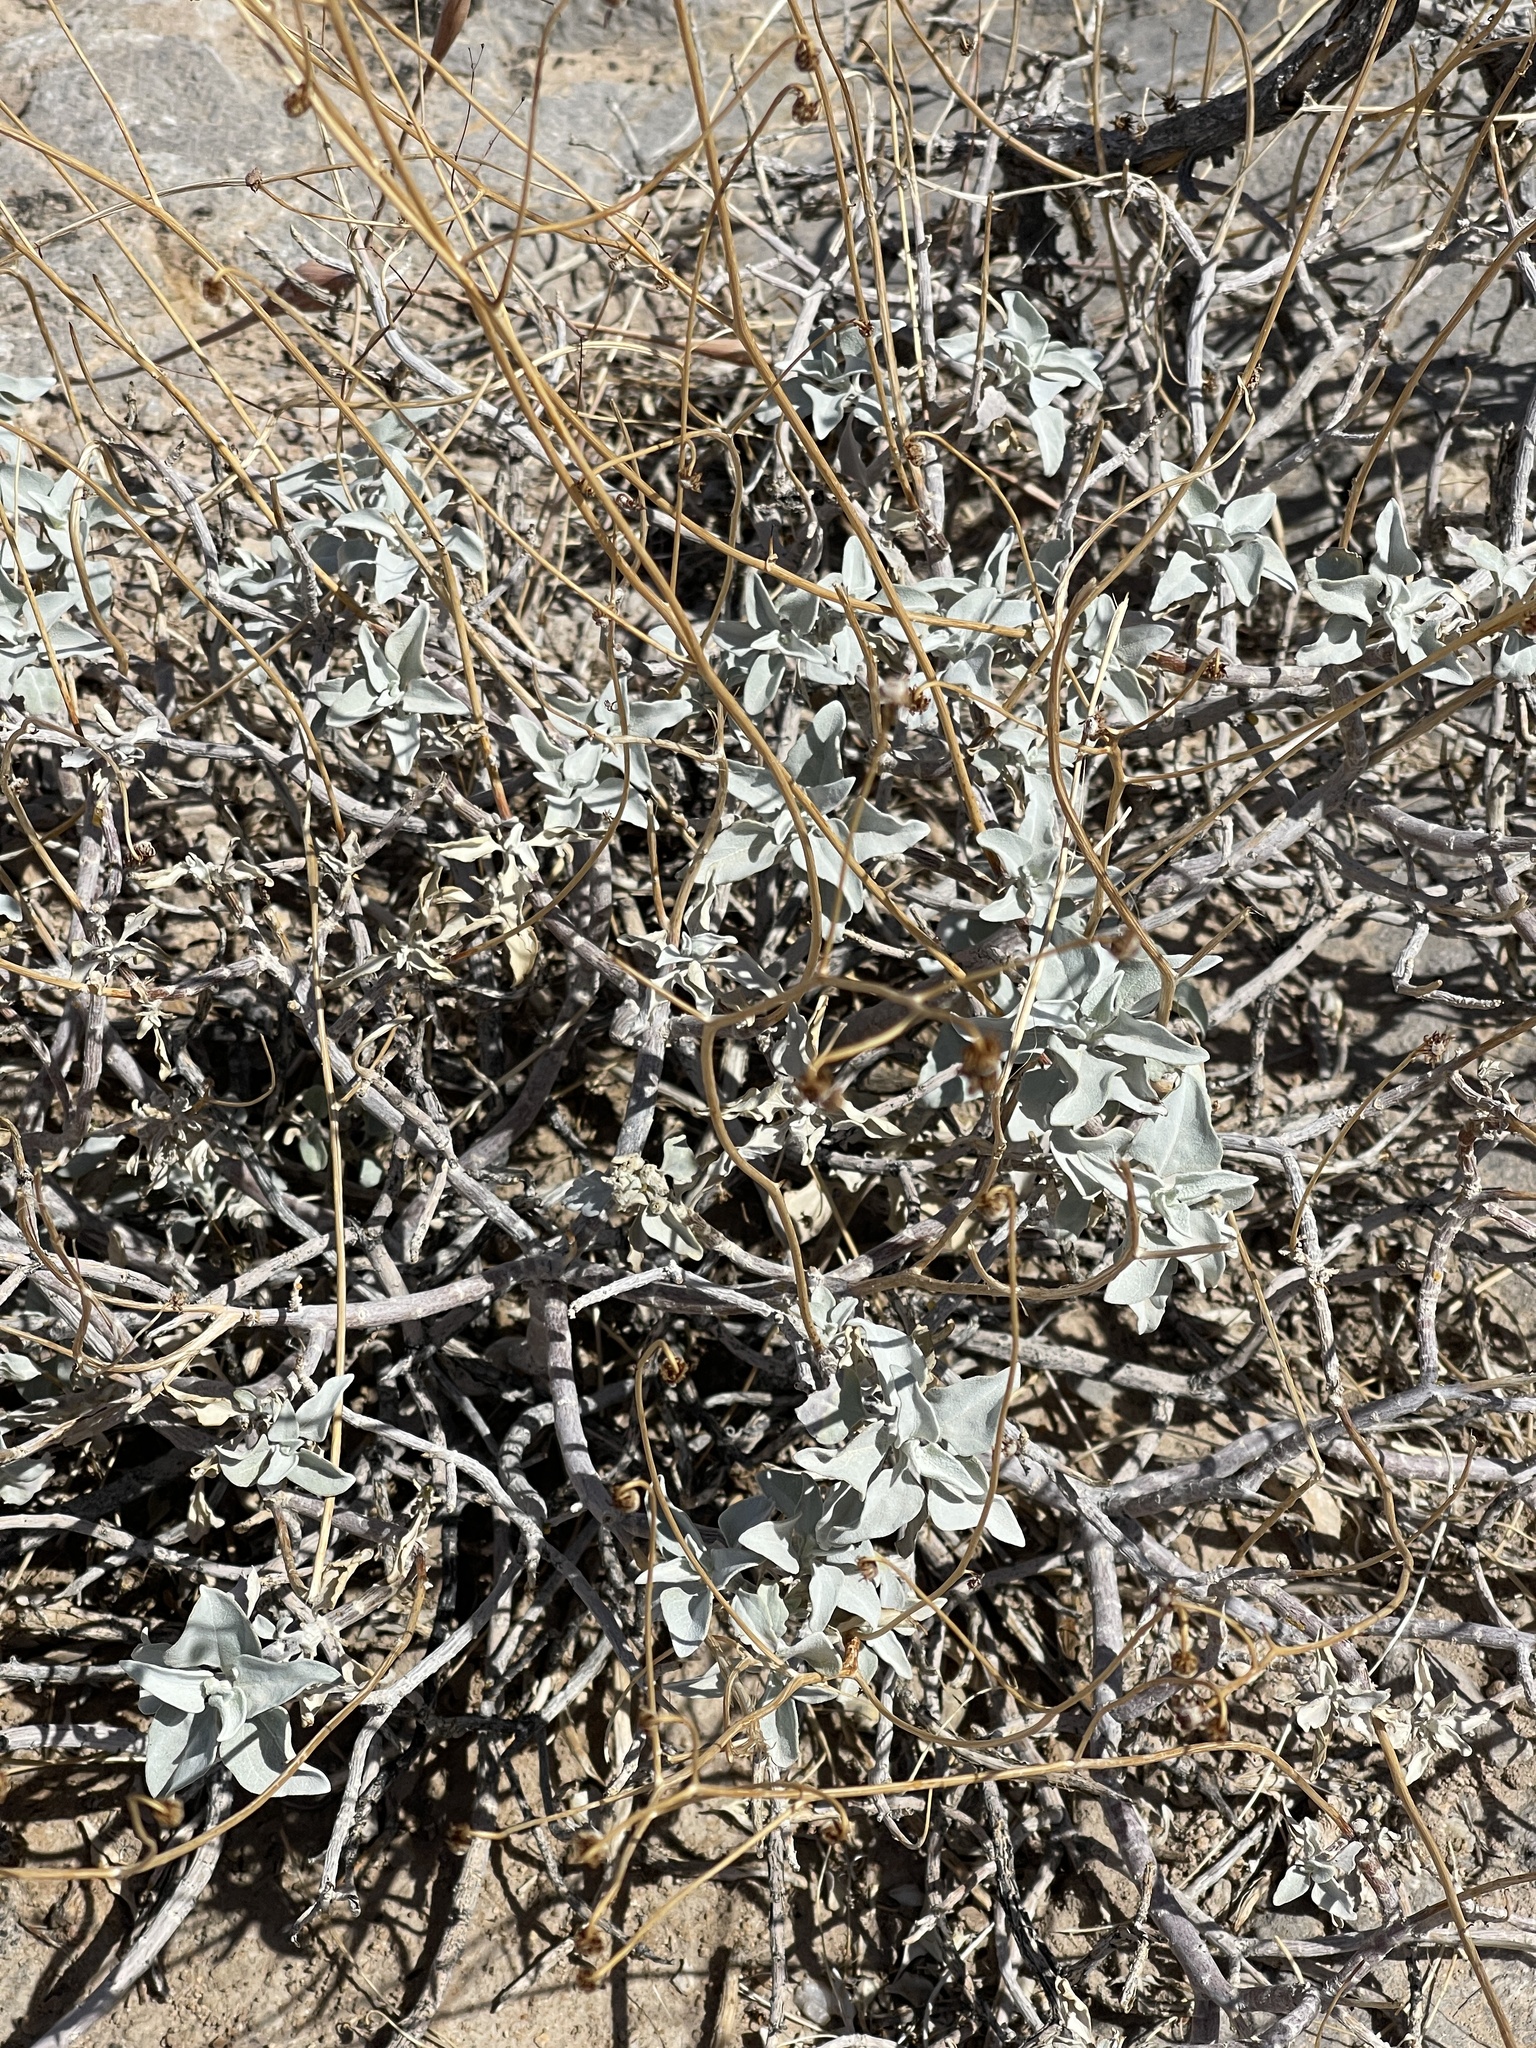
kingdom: Plantae
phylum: Tracheophyta
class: Magnoliopsida
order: Asterales
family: Asteraceae
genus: Encelia
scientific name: Encelia farinosa
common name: Brittlebush
